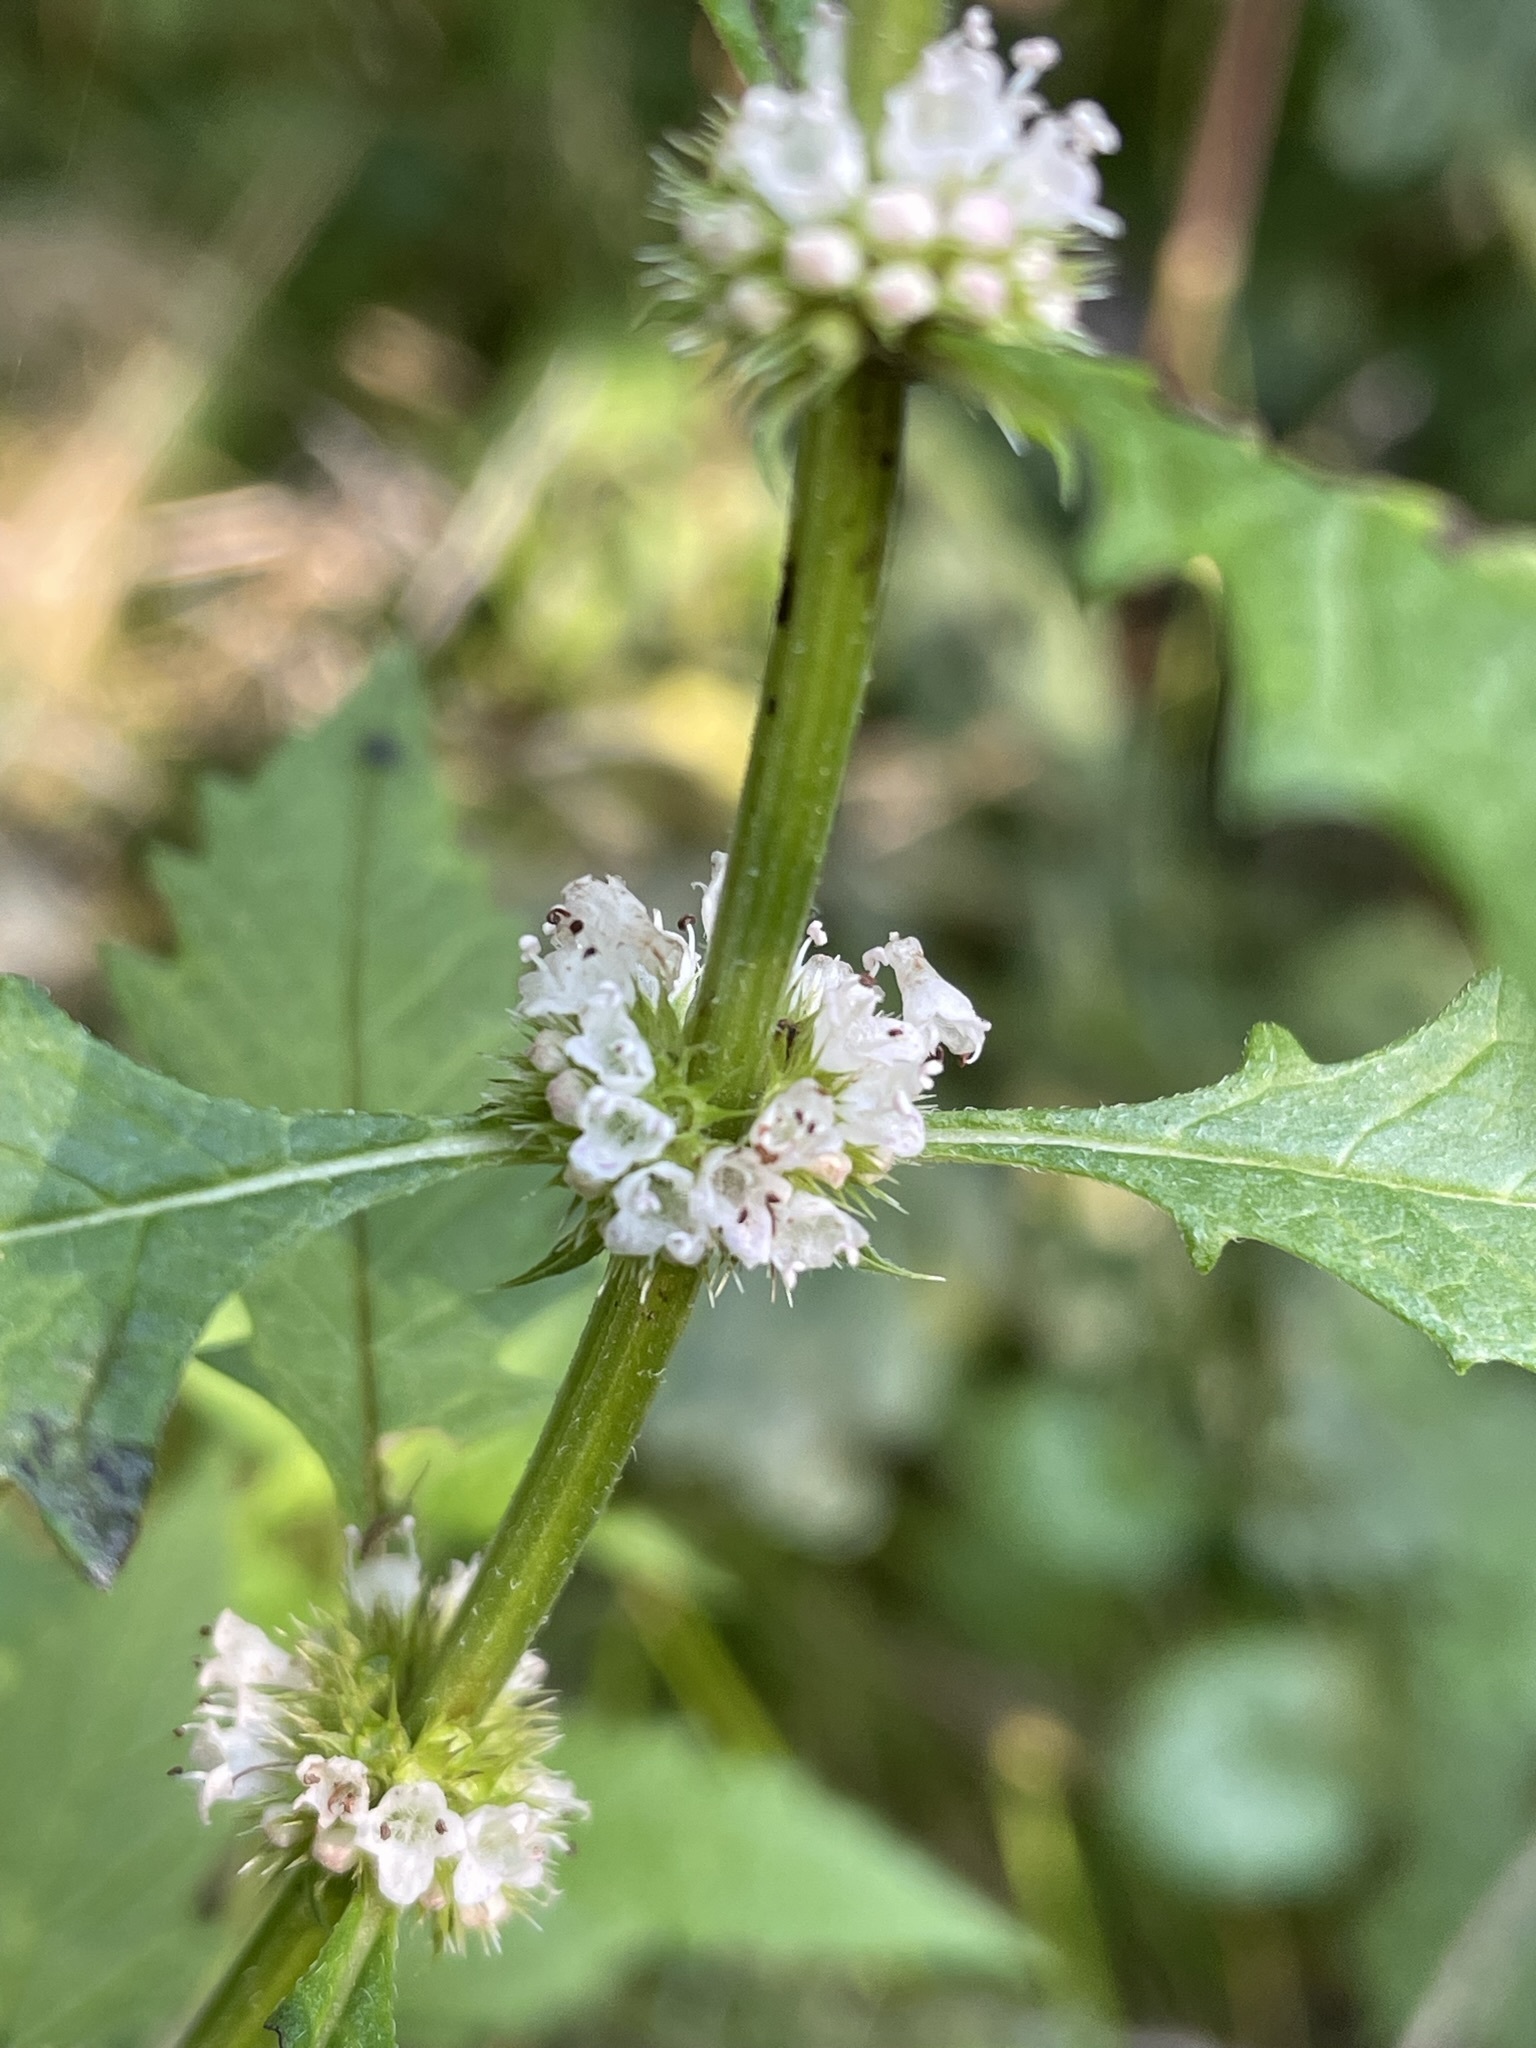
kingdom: Plantae
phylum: Tracheophyta
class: Magnoliopsida
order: Lamiales
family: Lamiaceae
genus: Lycopus
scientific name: Lycopus europaeus
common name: European bugleweed
